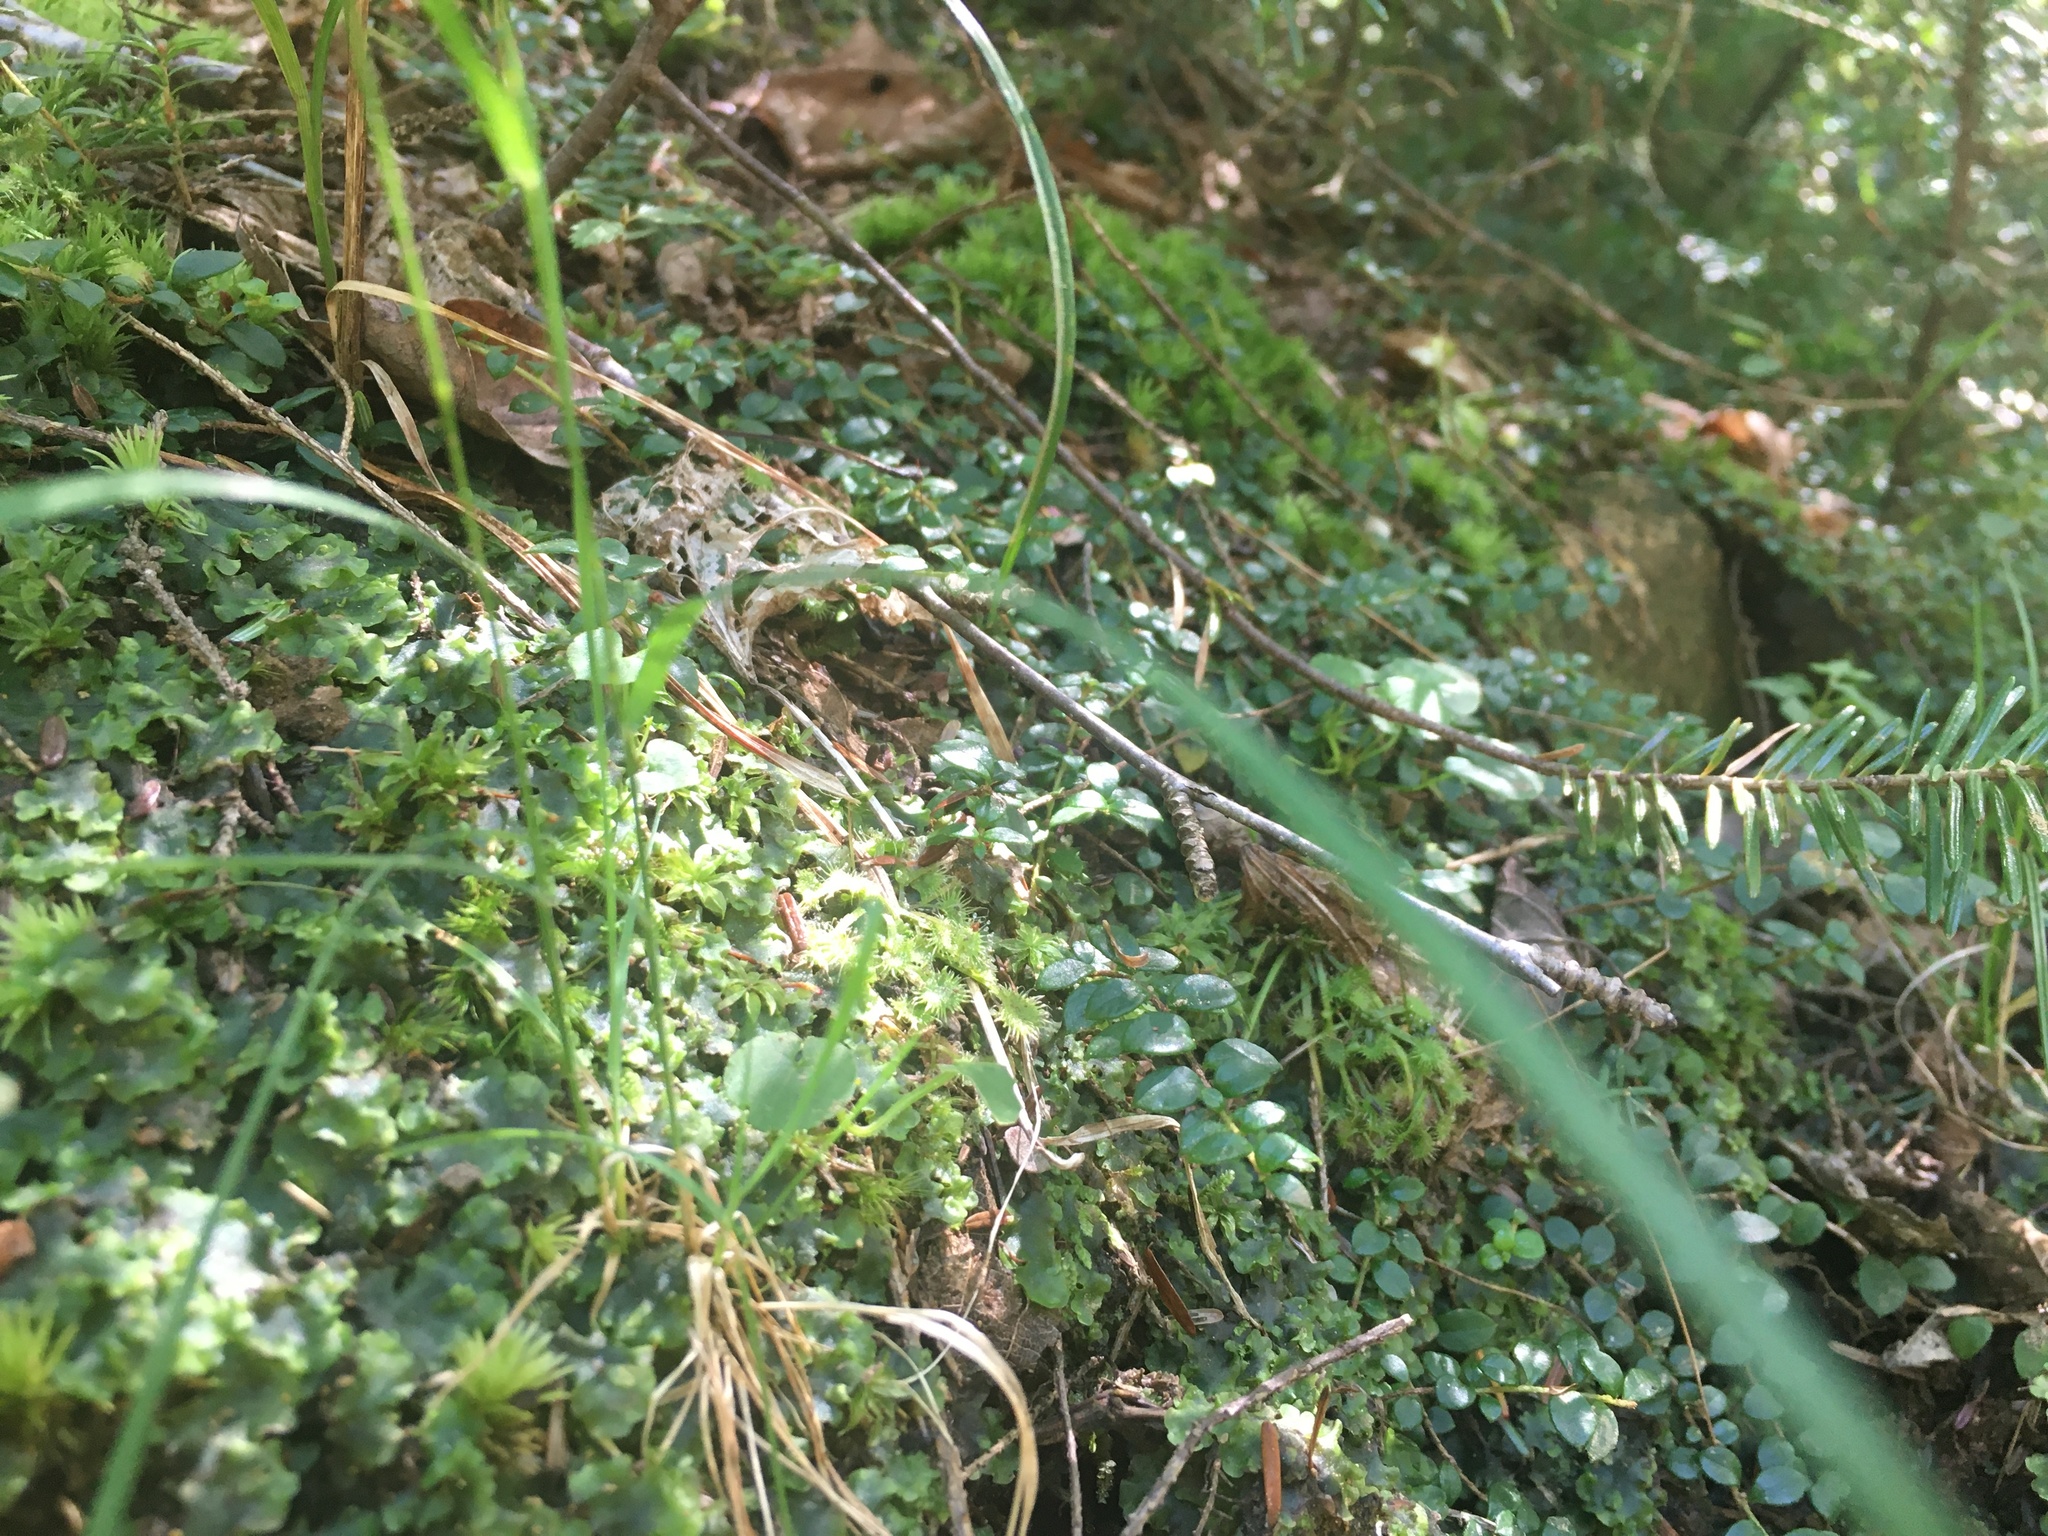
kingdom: Plantae
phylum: Tracheophyta
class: Magnoliopsida
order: Ericales
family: Ericaceae
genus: Gaultheria
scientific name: Gaultheria hispidula
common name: Cancer wintergreen
